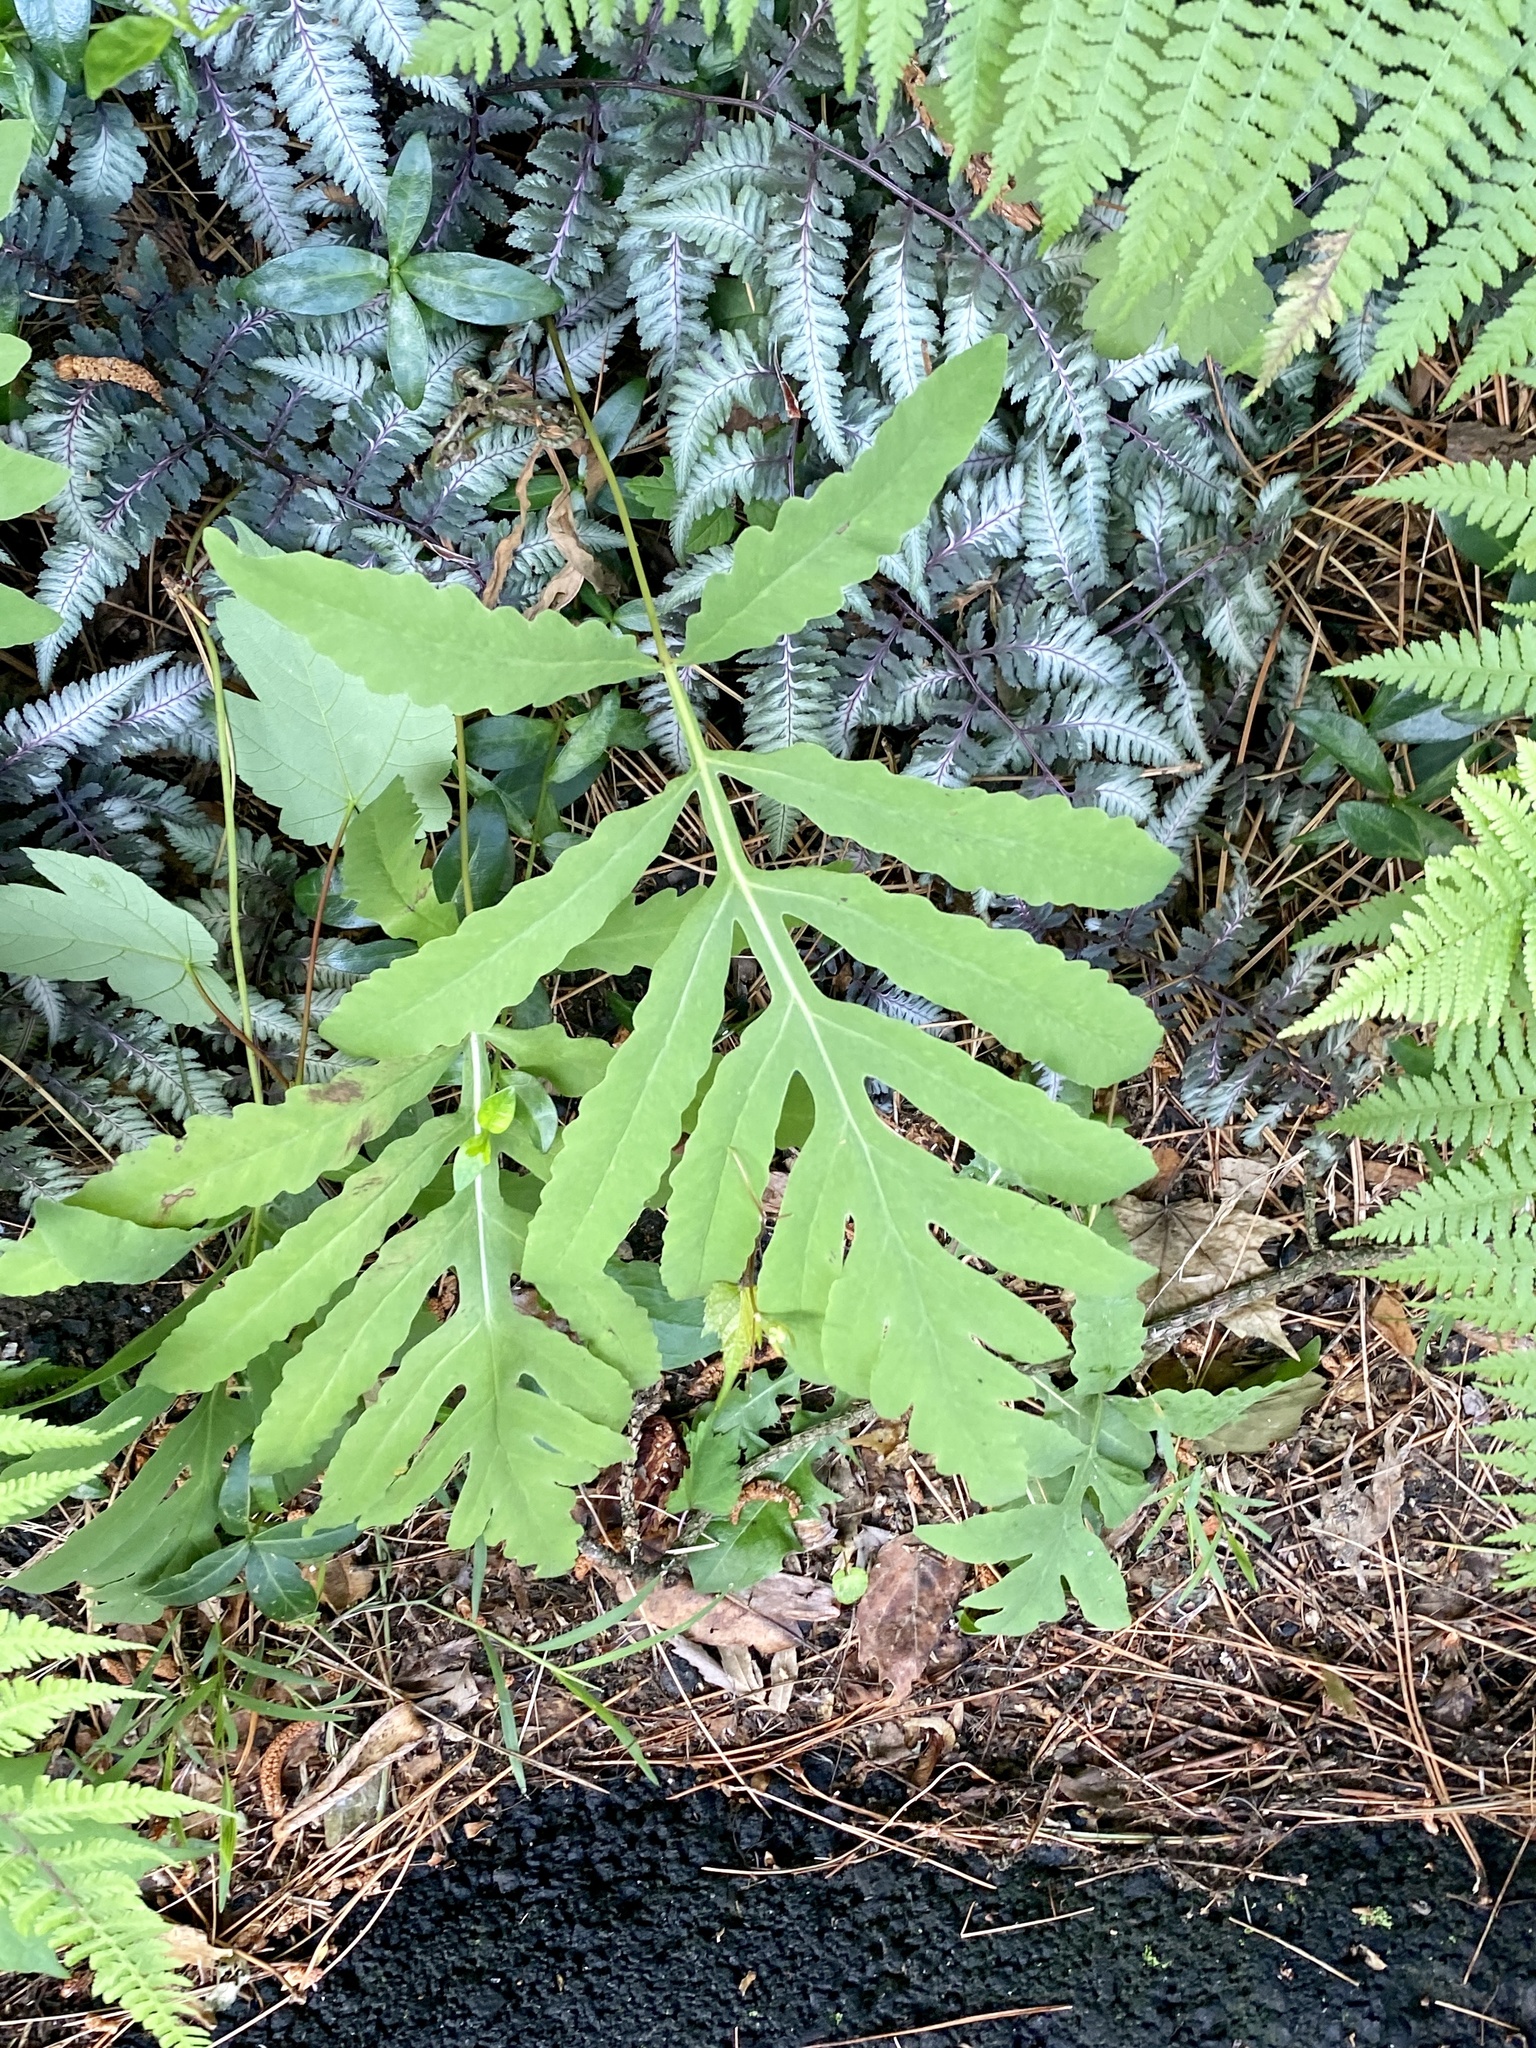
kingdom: Plantae
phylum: Tracheophyta
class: Polypodiopsida
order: Polypodiales
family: Onocleaceae
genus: Onoclea
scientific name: Onoclea sensibilis
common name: Sensitive fern
